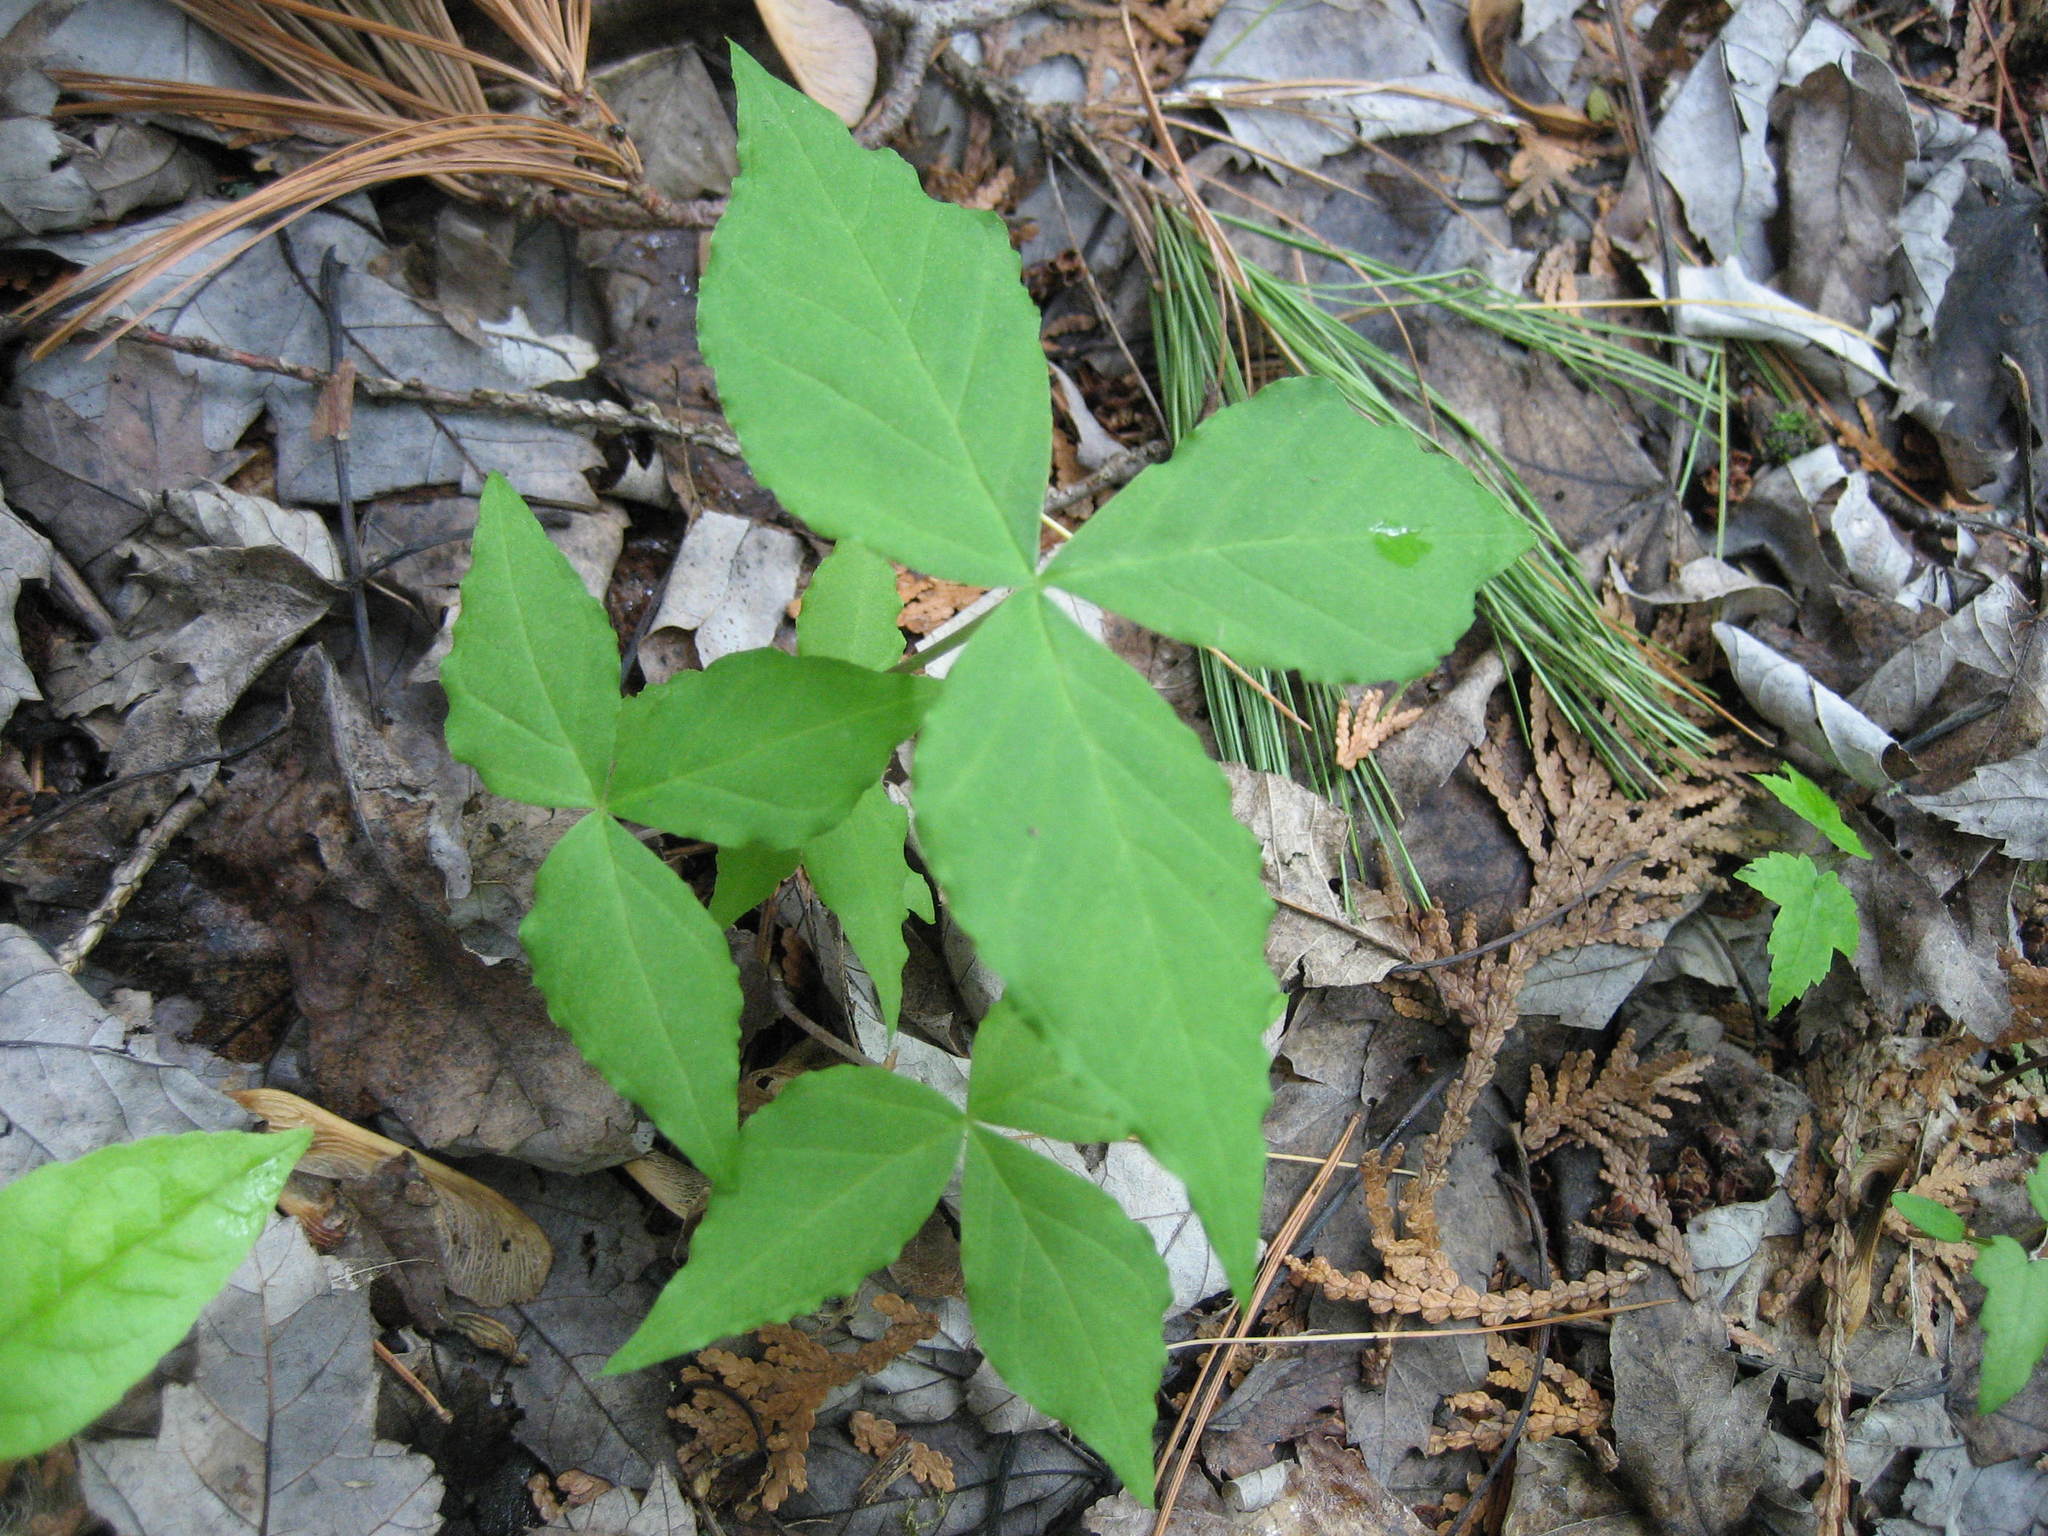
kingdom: Plantae
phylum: Tracheophyta
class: Liliopsida
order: Alismatales
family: Araceae
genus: Arisaema
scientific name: Arisaema triphyllum
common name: Jack-in-the-pulpit
